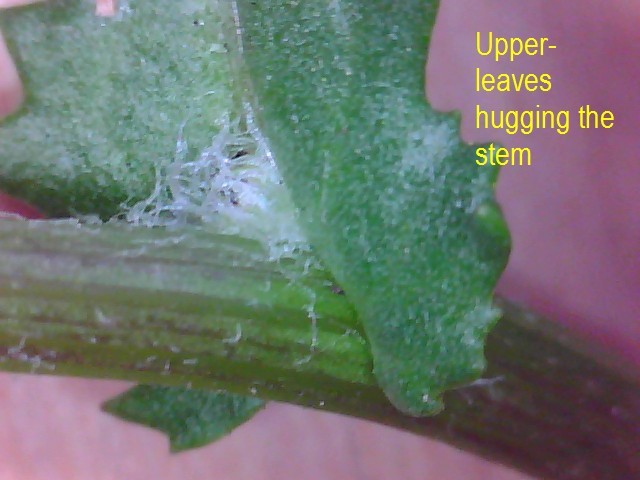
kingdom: Plantae
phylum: Tracheophyta
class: Magnoliopsida
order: Asterales
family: Asteraceae
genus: Senecio
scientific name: Senecio vulgaris
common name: Old-man-in-the-spring
